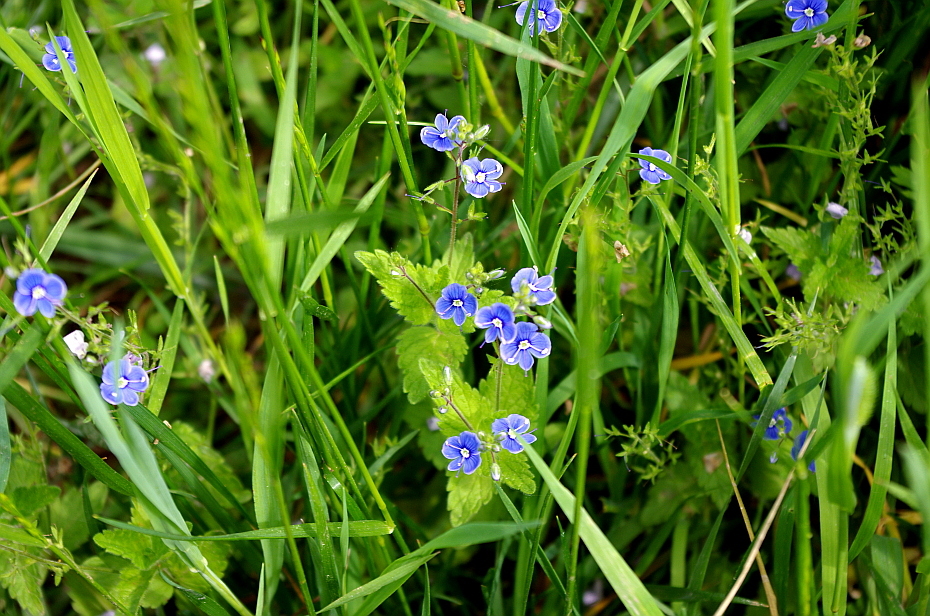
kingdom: Plantae
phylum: Tracheophyta
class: Magnoliopsida
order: Lamiales
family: Plantaginaceae
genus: Veronica
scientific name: Veronica chamaedrys
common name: Germander speedwell
